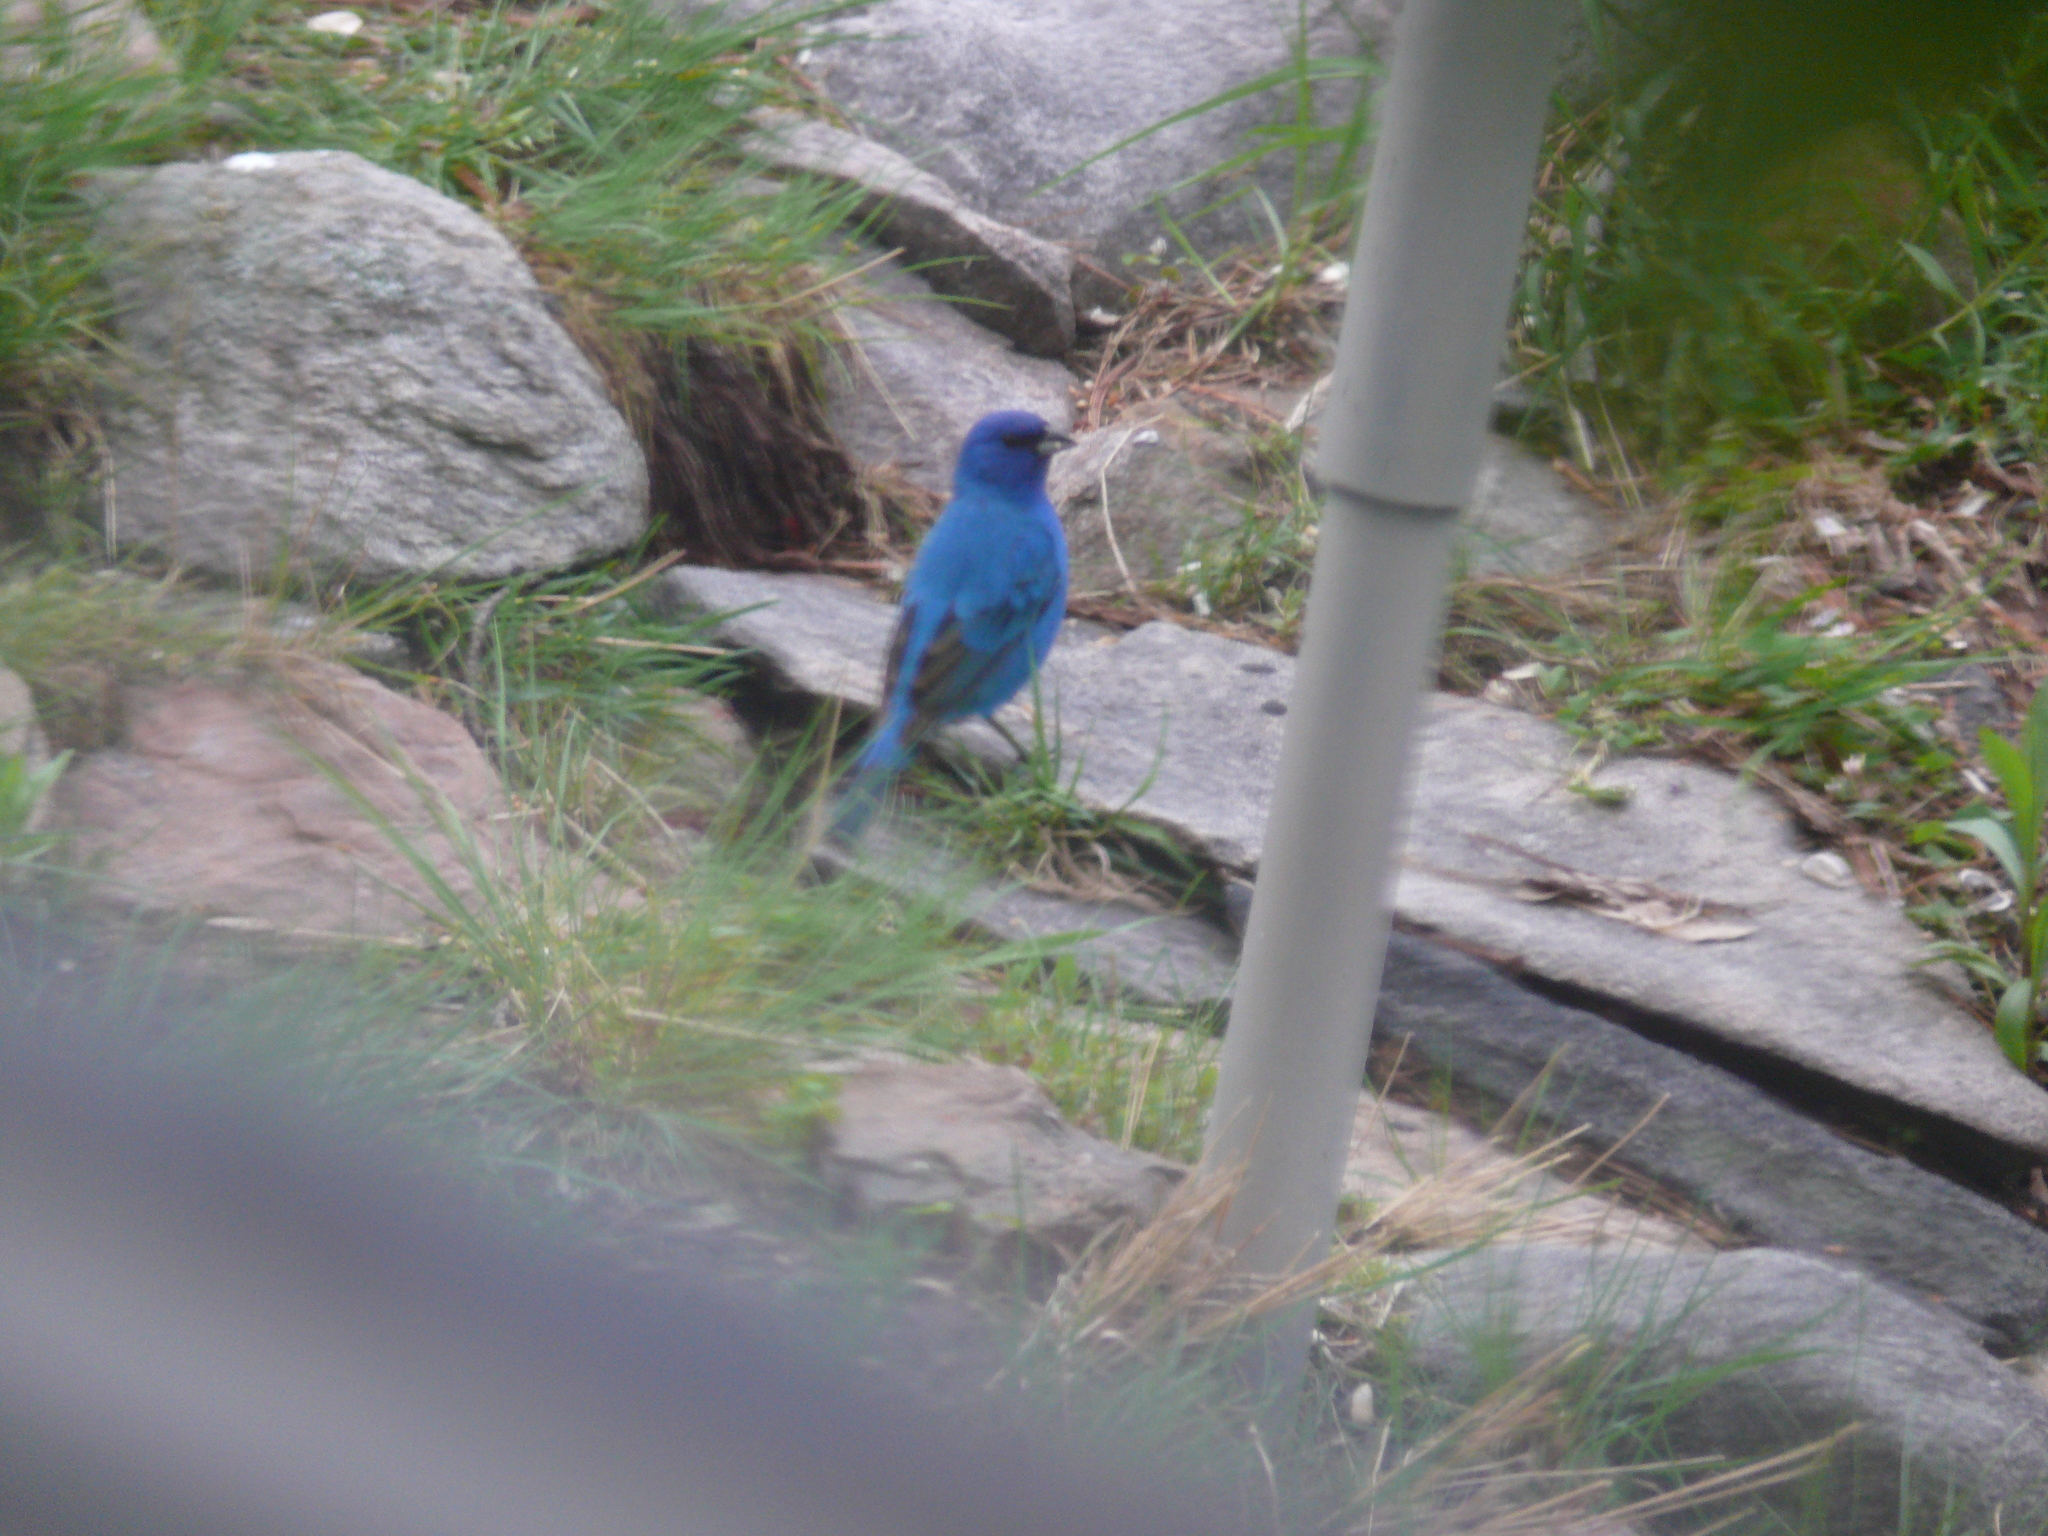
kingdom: Animalia
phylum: Chordata
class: Aves
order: Passeriformes
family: Cardinalidae
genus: Passerina
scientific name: Passerina cyanea
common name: Indigo bunting
